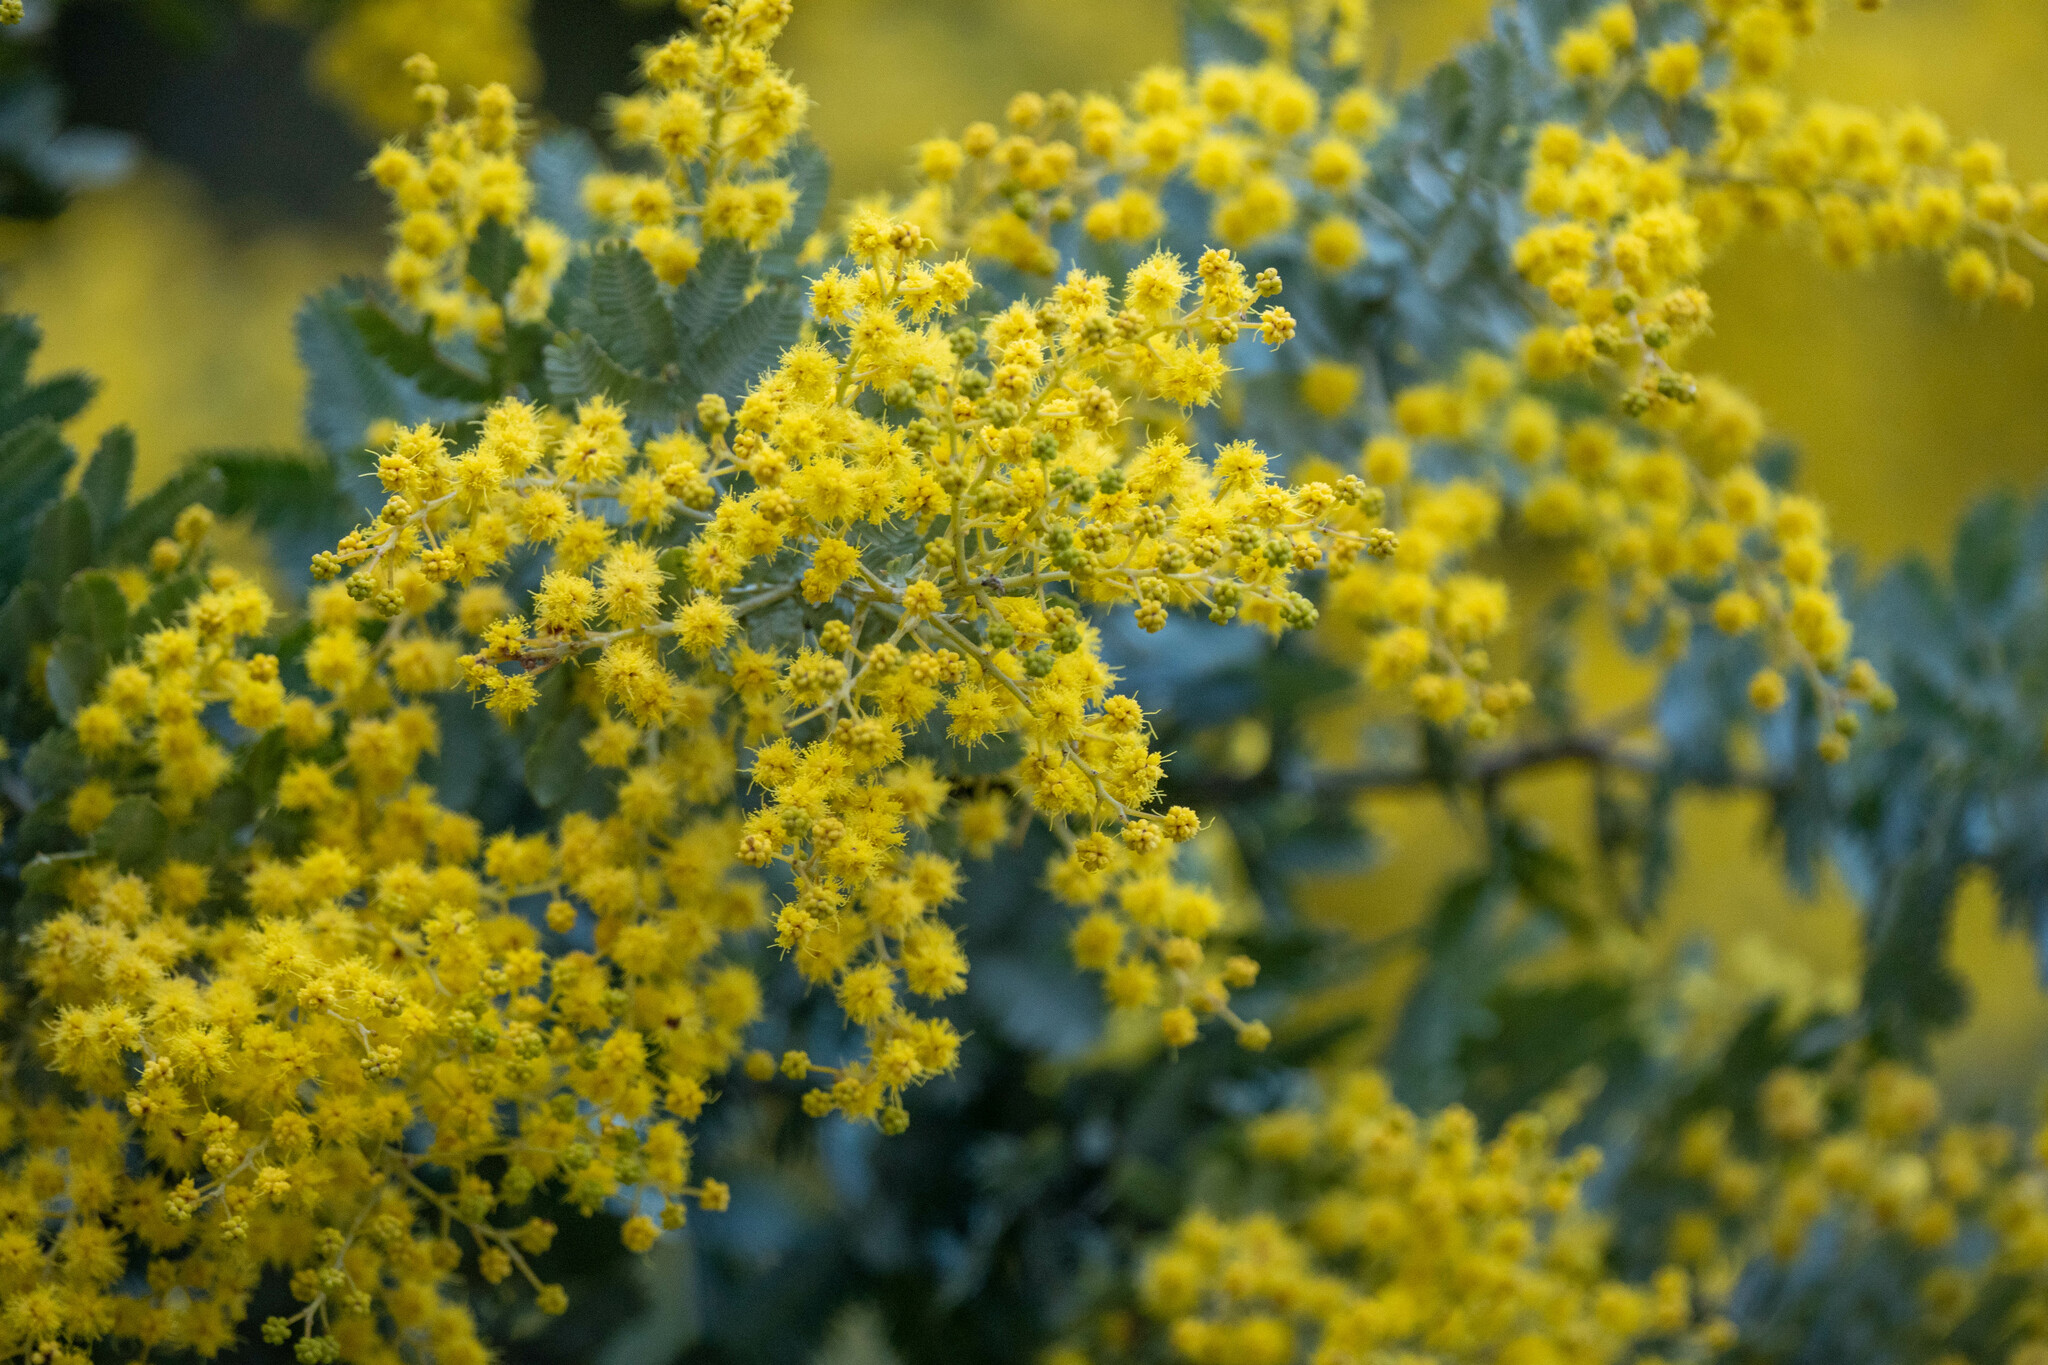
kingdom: Plantae
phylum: Tracheophyta
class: Magnoliopsida
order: Fabales
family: Fabaceae
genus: Acacia
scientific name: Acacia baileyana
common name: Cootamundra wattle
